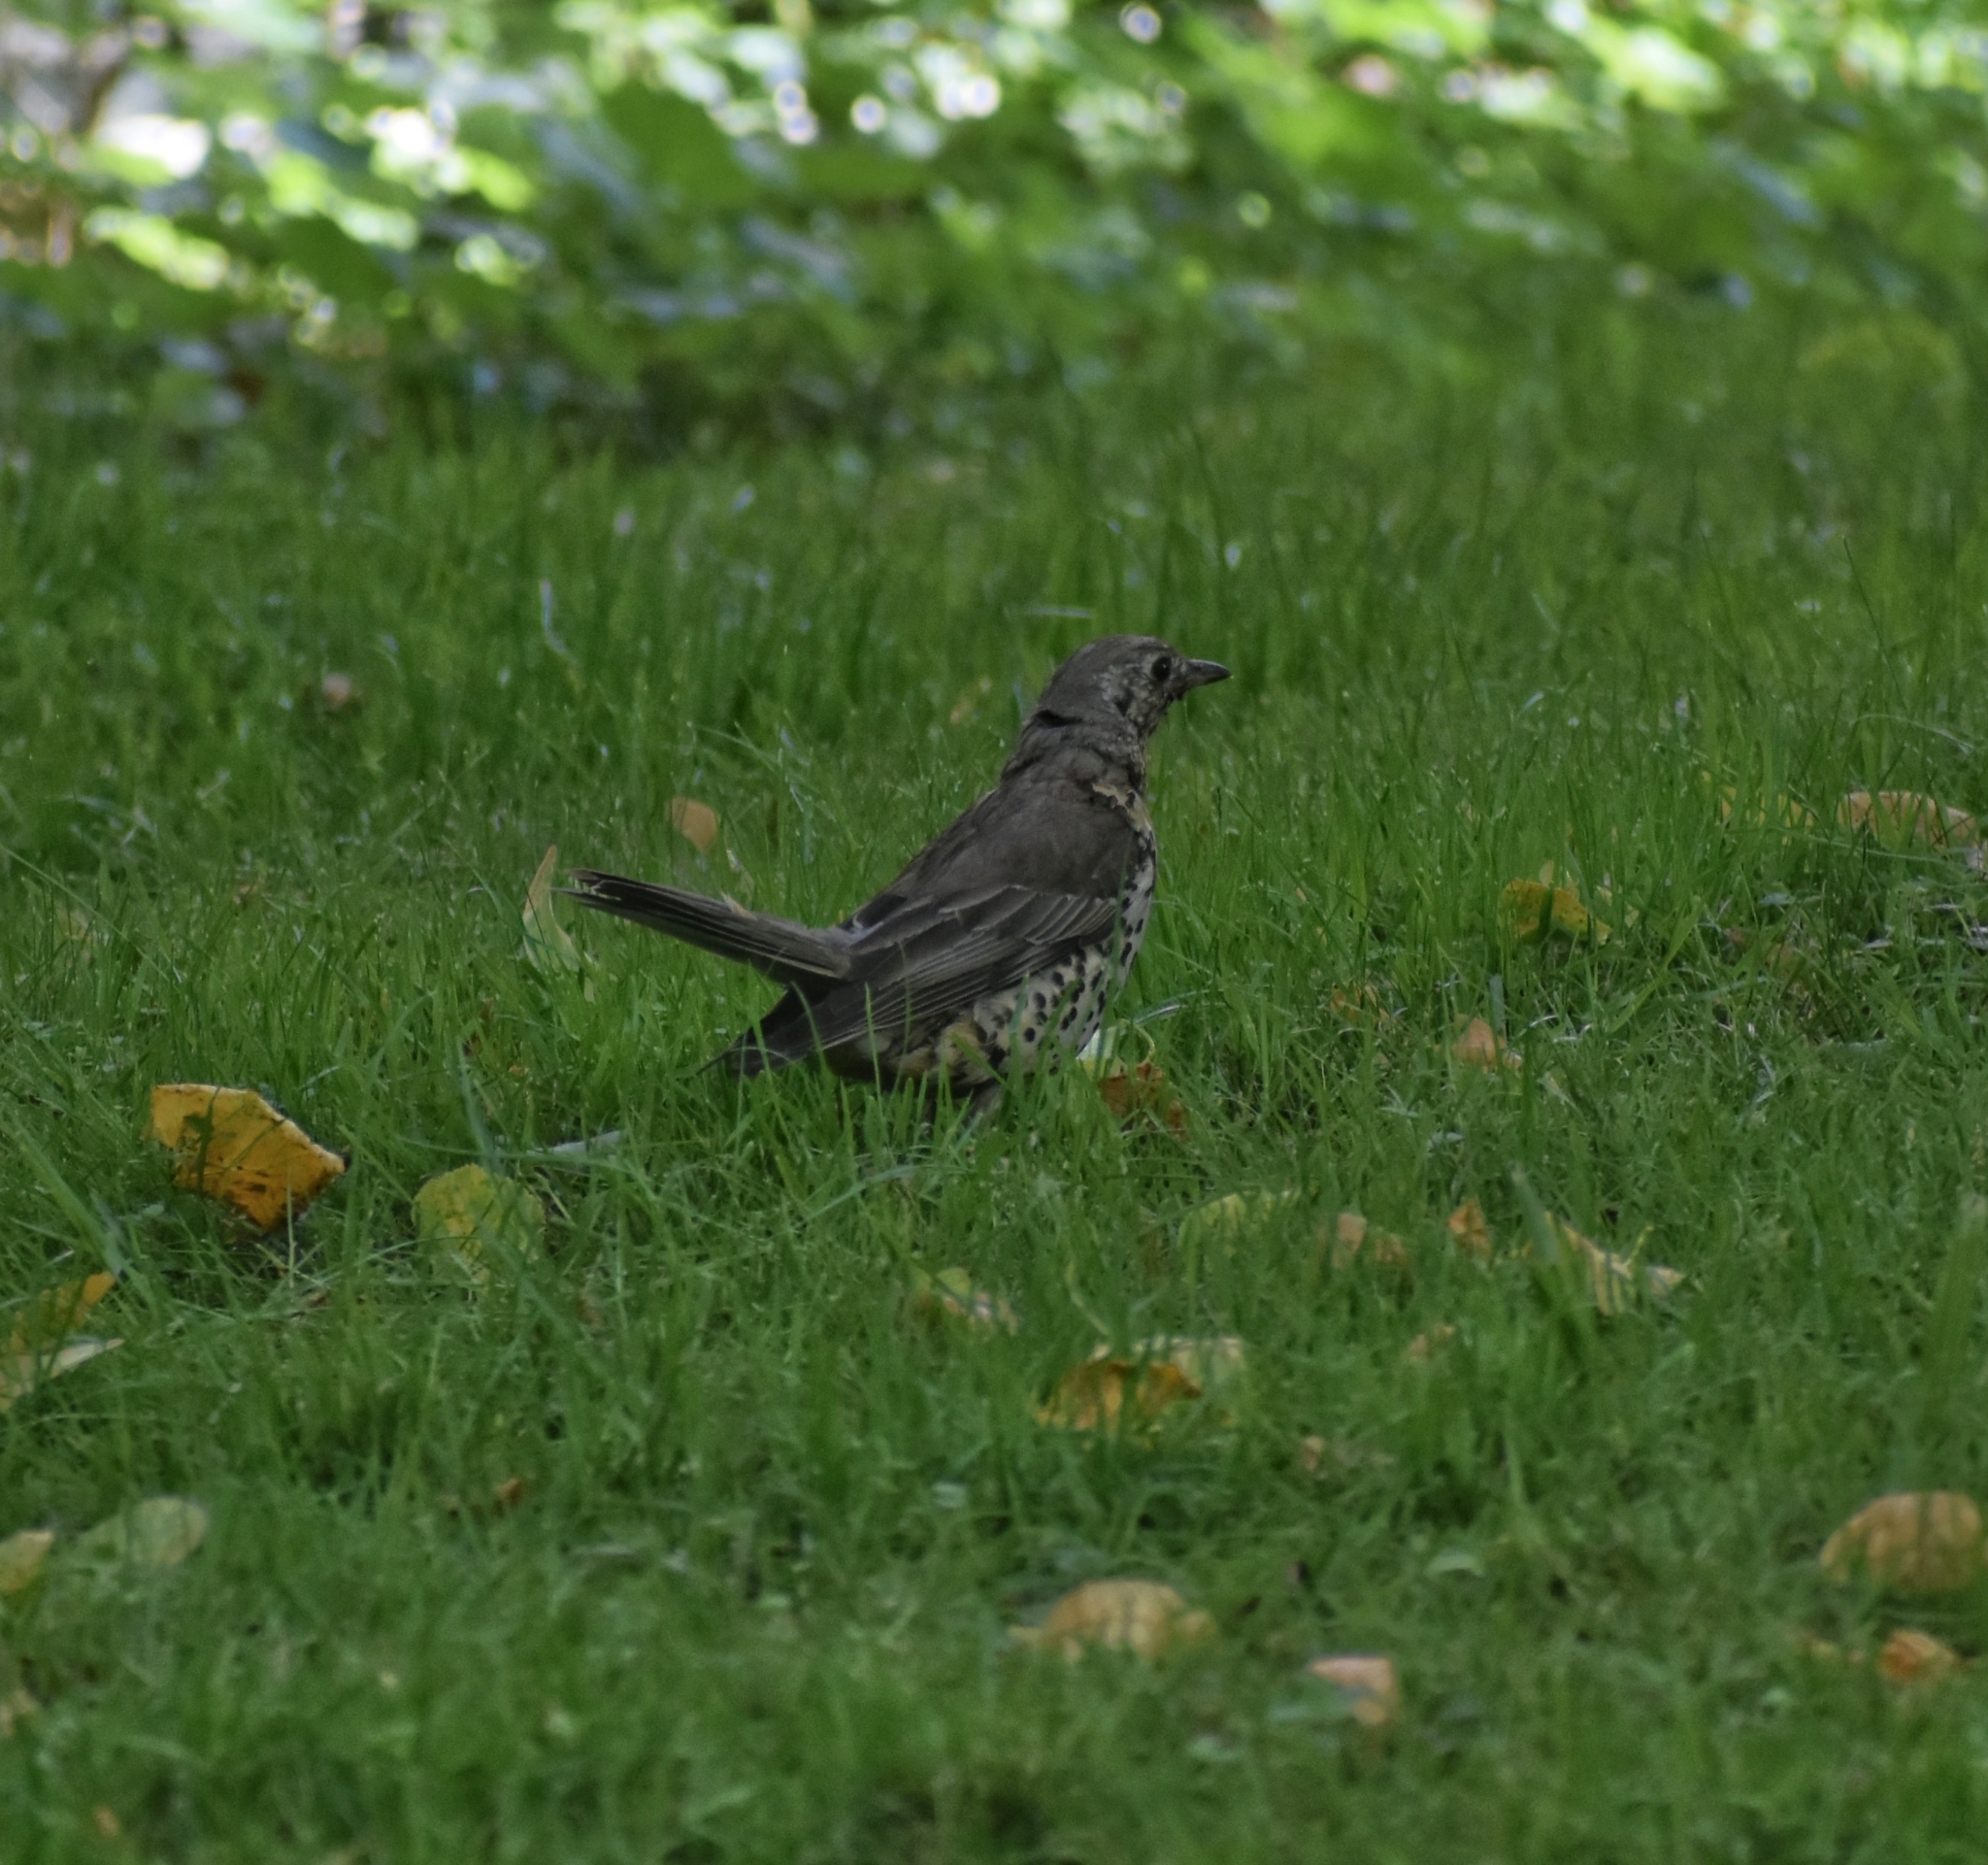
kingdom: Animalia
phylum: Chordata
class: Aves
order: Passeriformes
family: Turdidae
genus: Turdus
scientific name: Turdus viscivorus
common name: Mistle thrush
